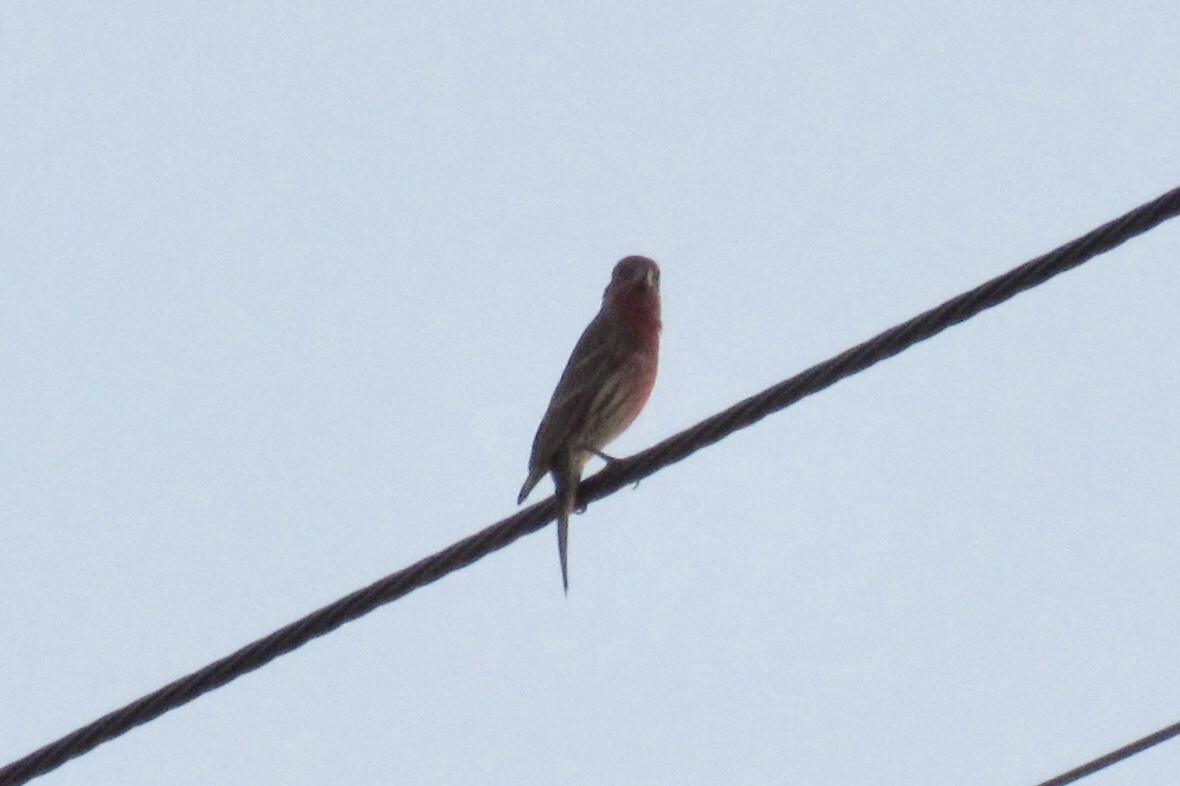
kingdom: Animalia
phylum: Chordata
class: Aves
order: Passeriformes
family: Fringillidae
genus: Haemorhous
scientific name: Haemorhous mexicanus
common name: House finch
